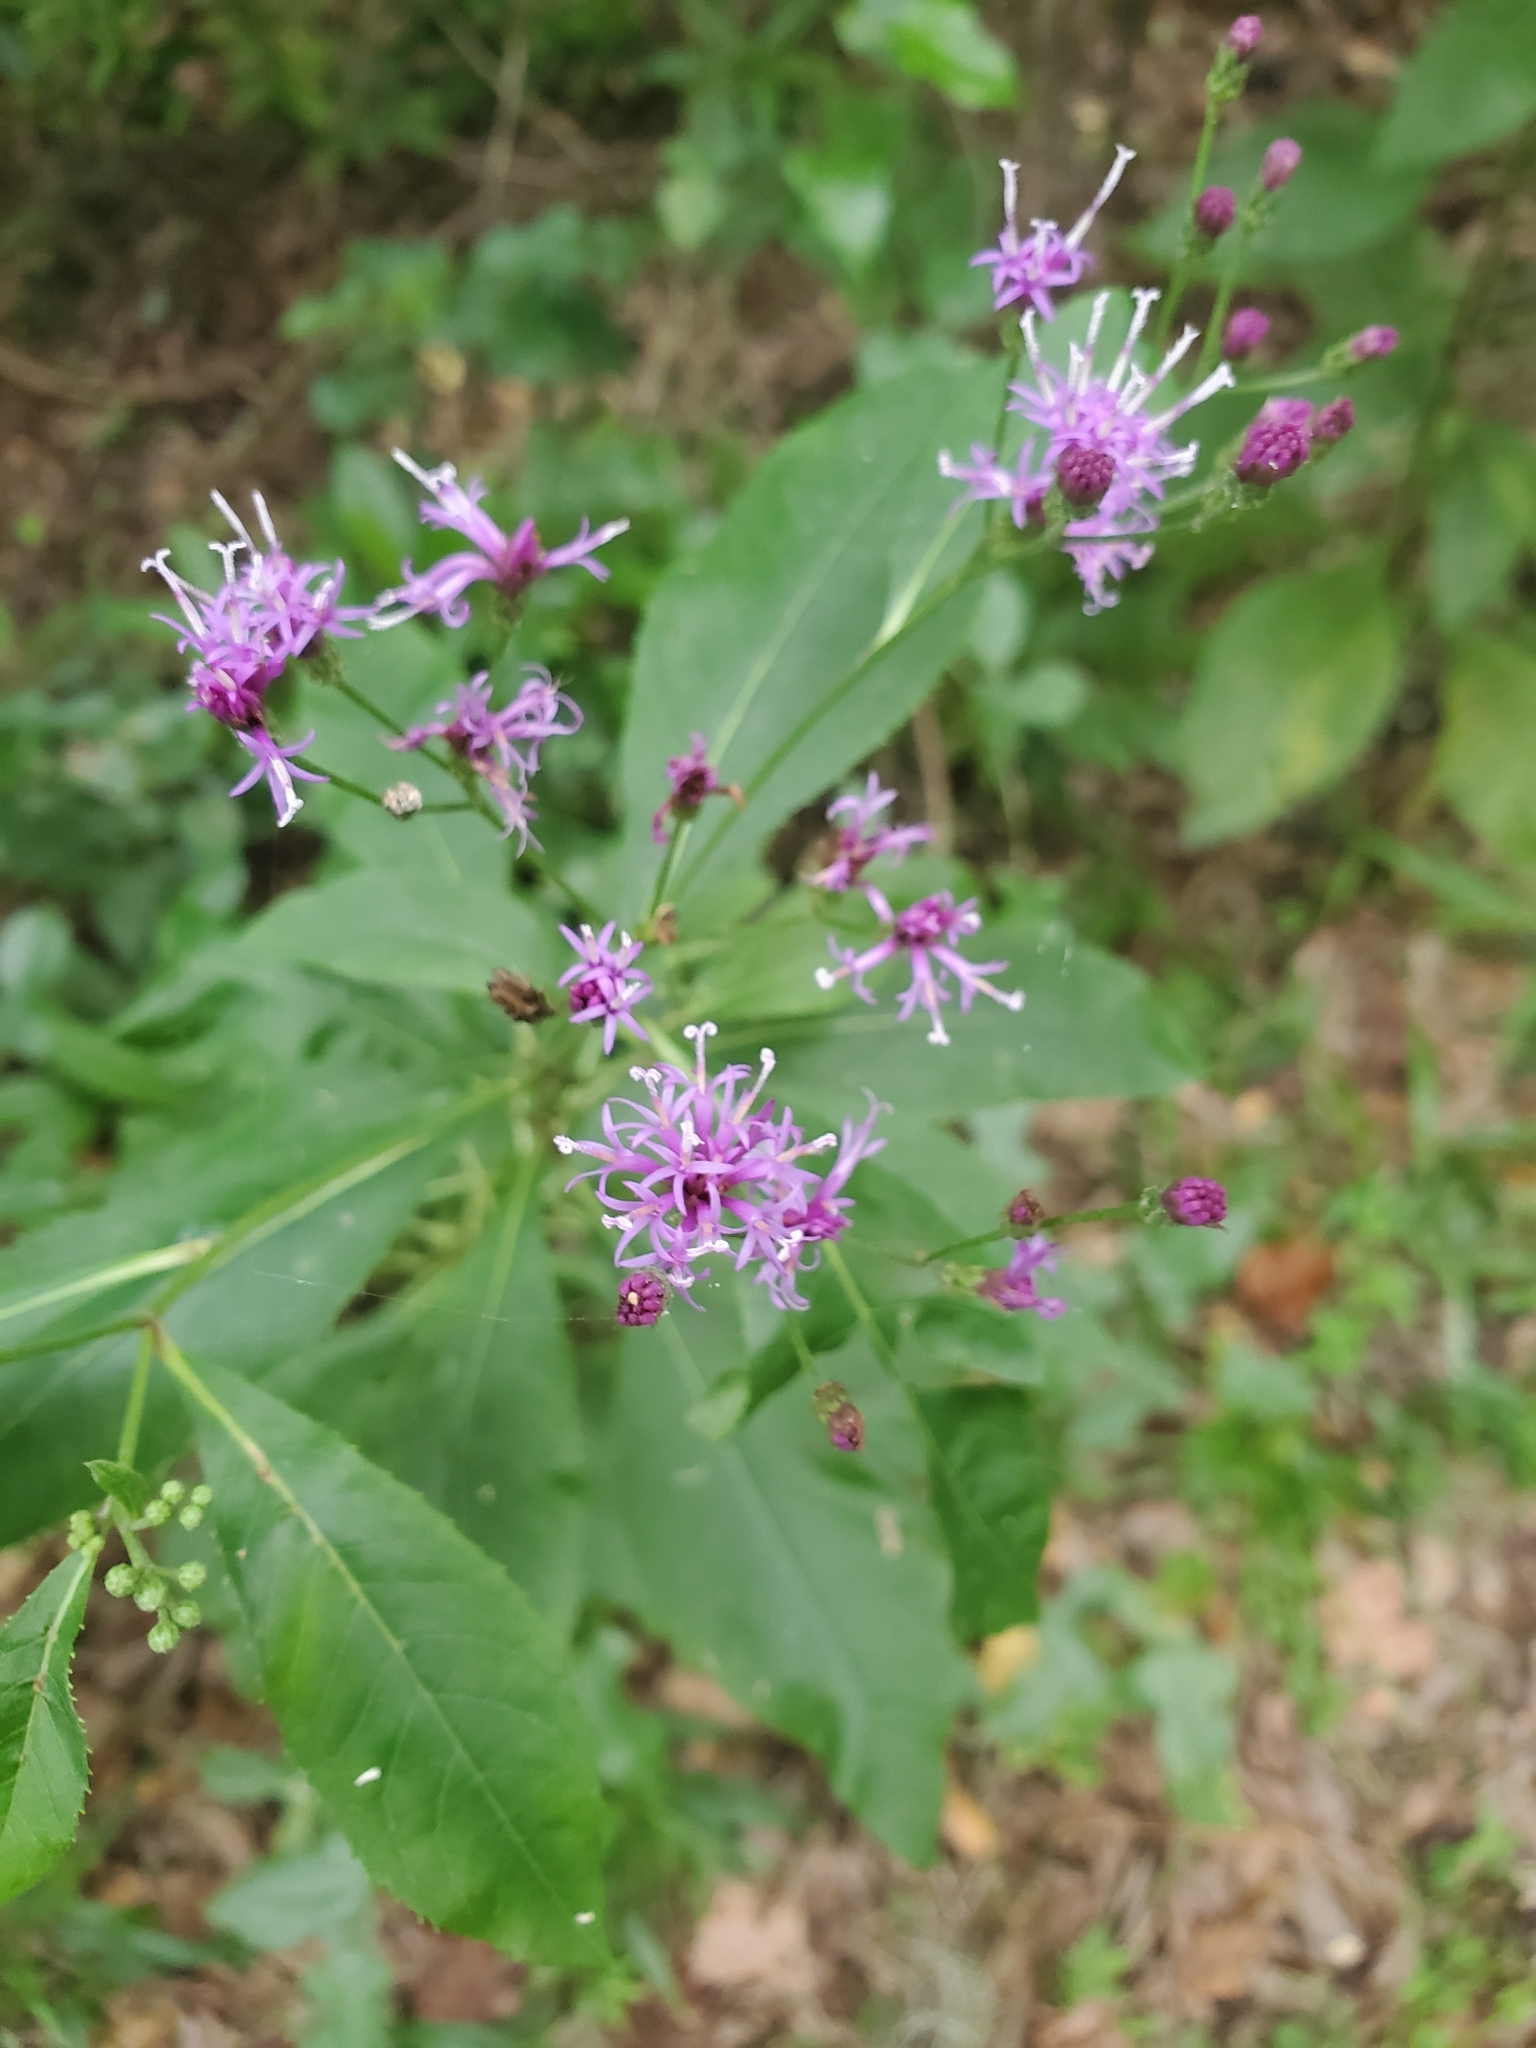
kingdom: Plantae
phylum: Tracheophyta
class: Magnoliopsida
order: Asterales
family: Asteraceae
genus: Vernonia
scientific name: Vernonia gigantea
